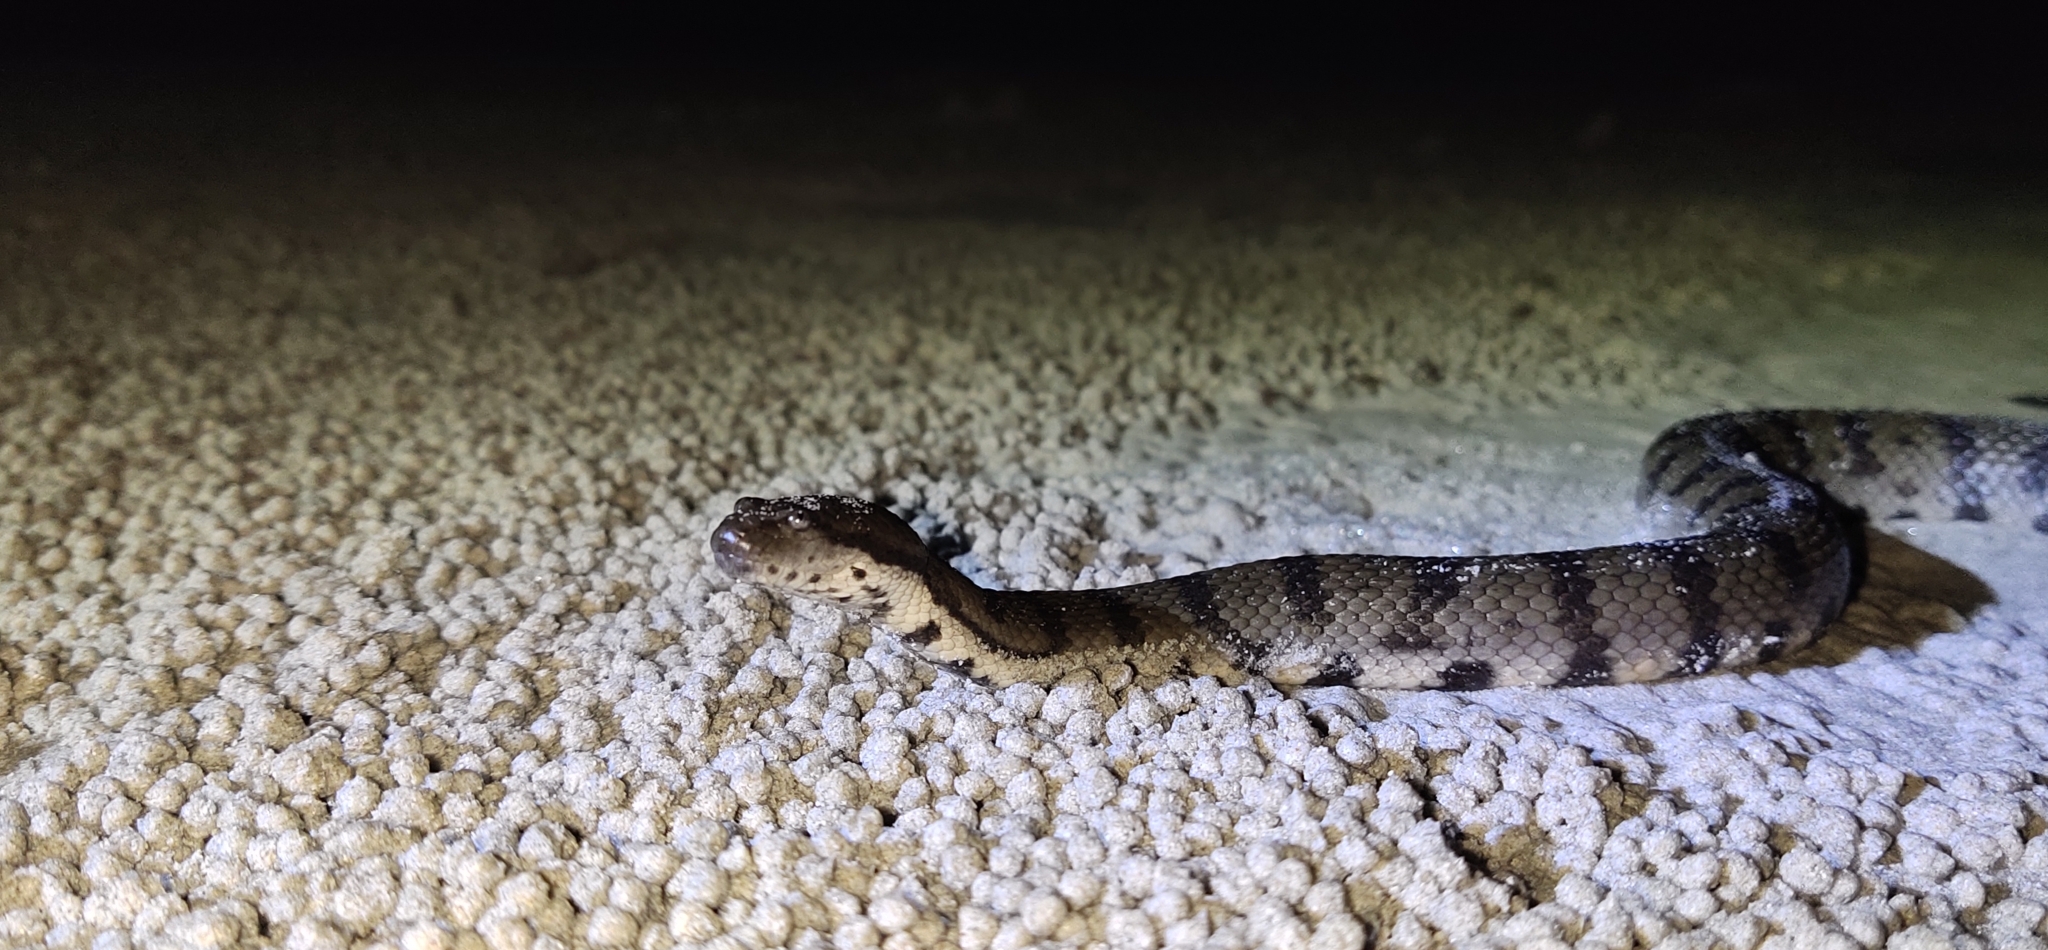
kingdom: Animalia
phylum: Chordata
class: Squamata
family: Homalopsidae
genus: Cerberus
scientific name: Cerberus rynchops
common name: Dog-faced water snake
